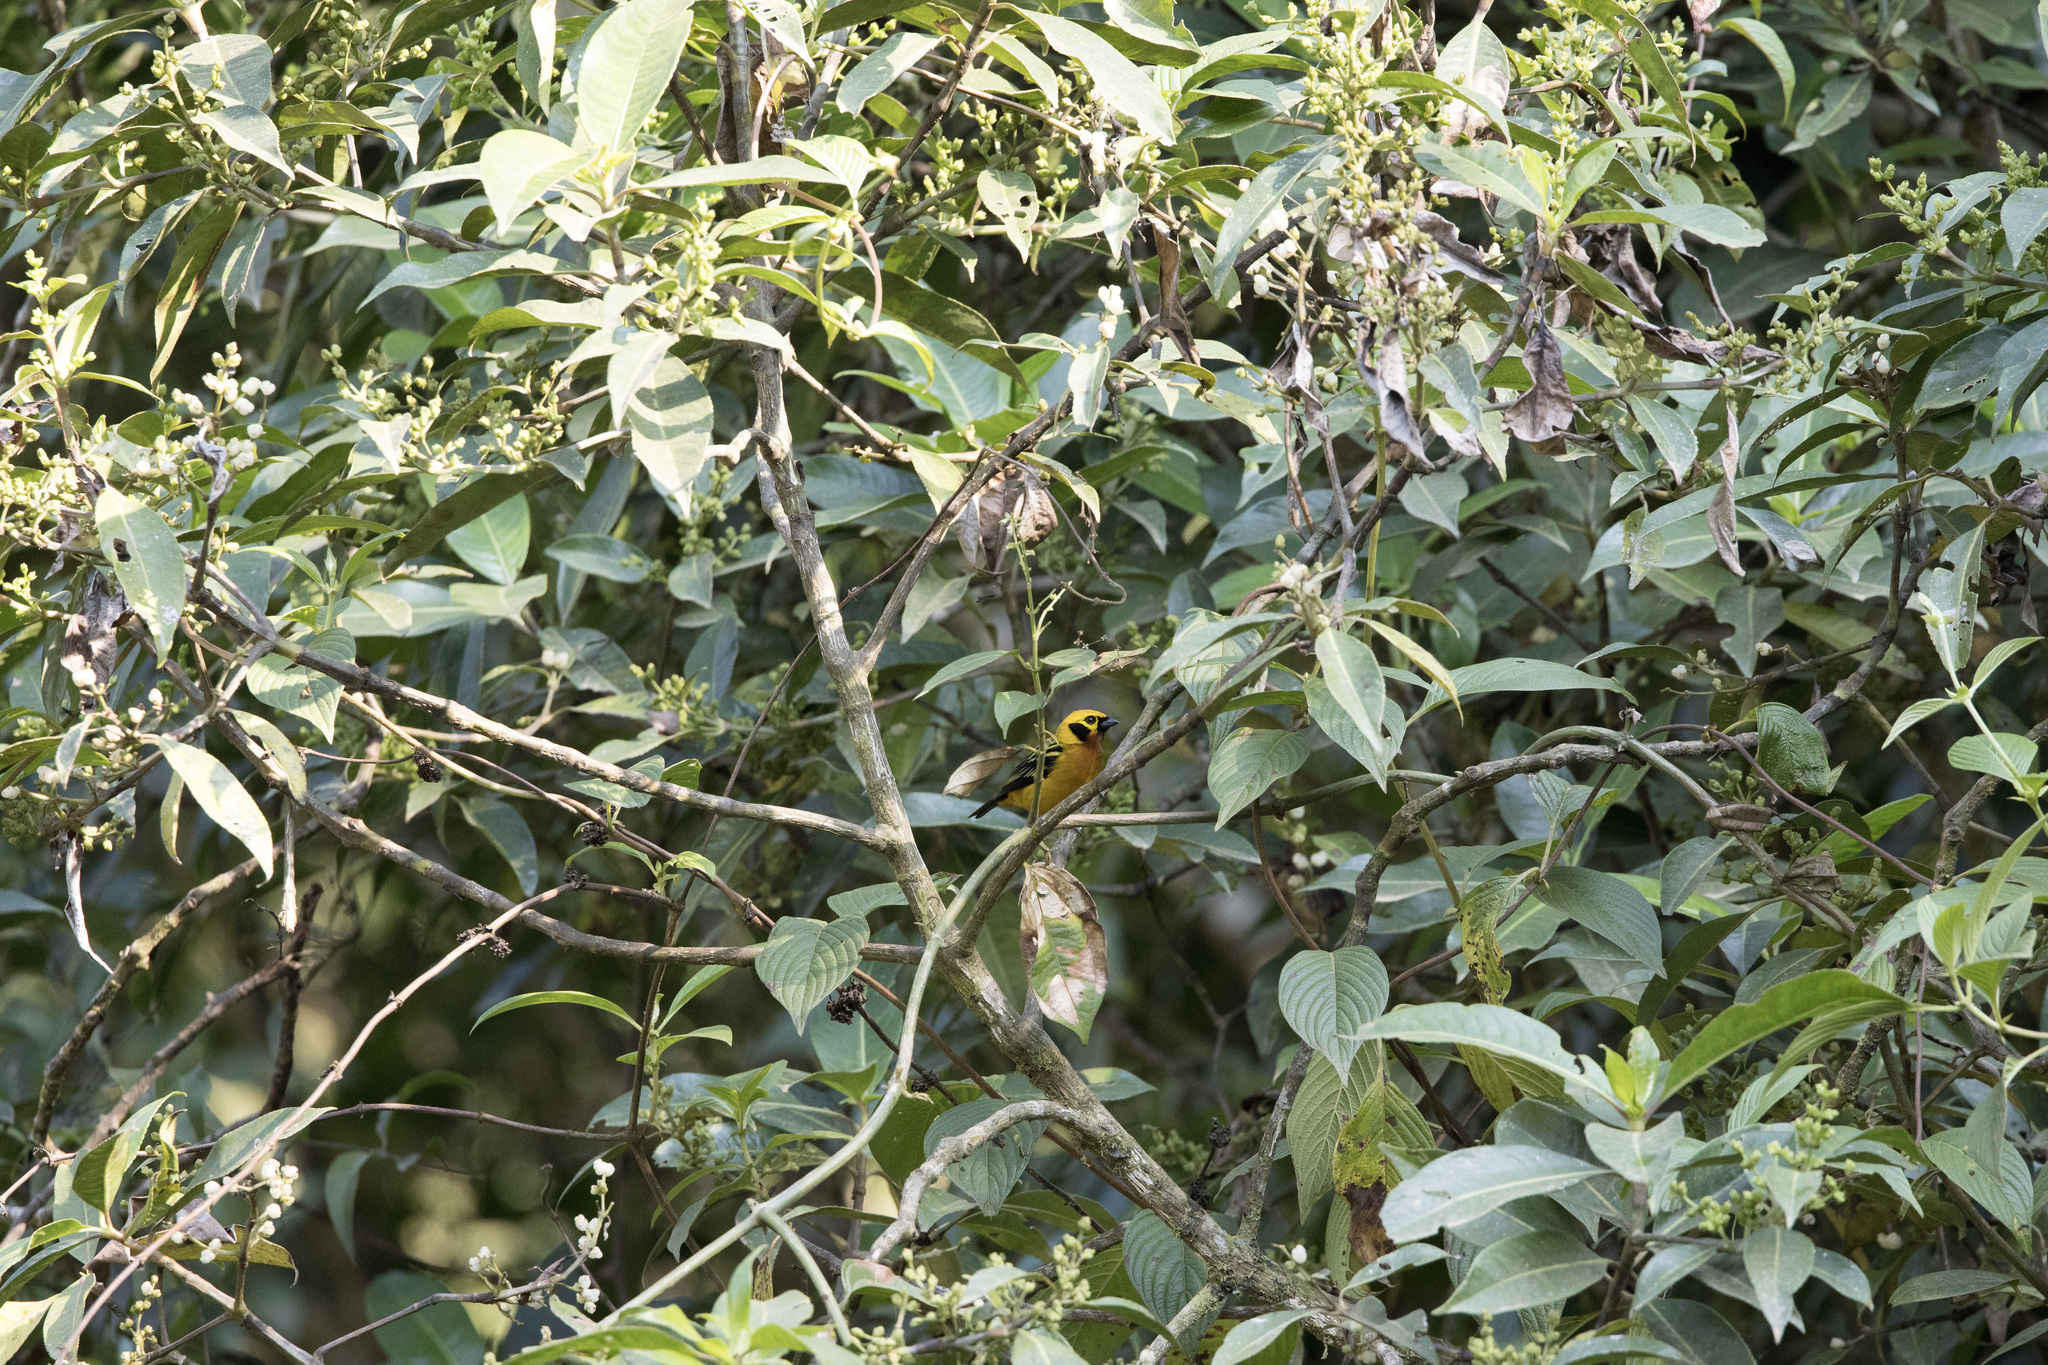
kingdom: Animalia
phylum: Chordata
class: Aves
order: Passeriformes
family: Thraupidae
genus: Tangara
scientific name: Tangara arthus
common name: Golden tanager
